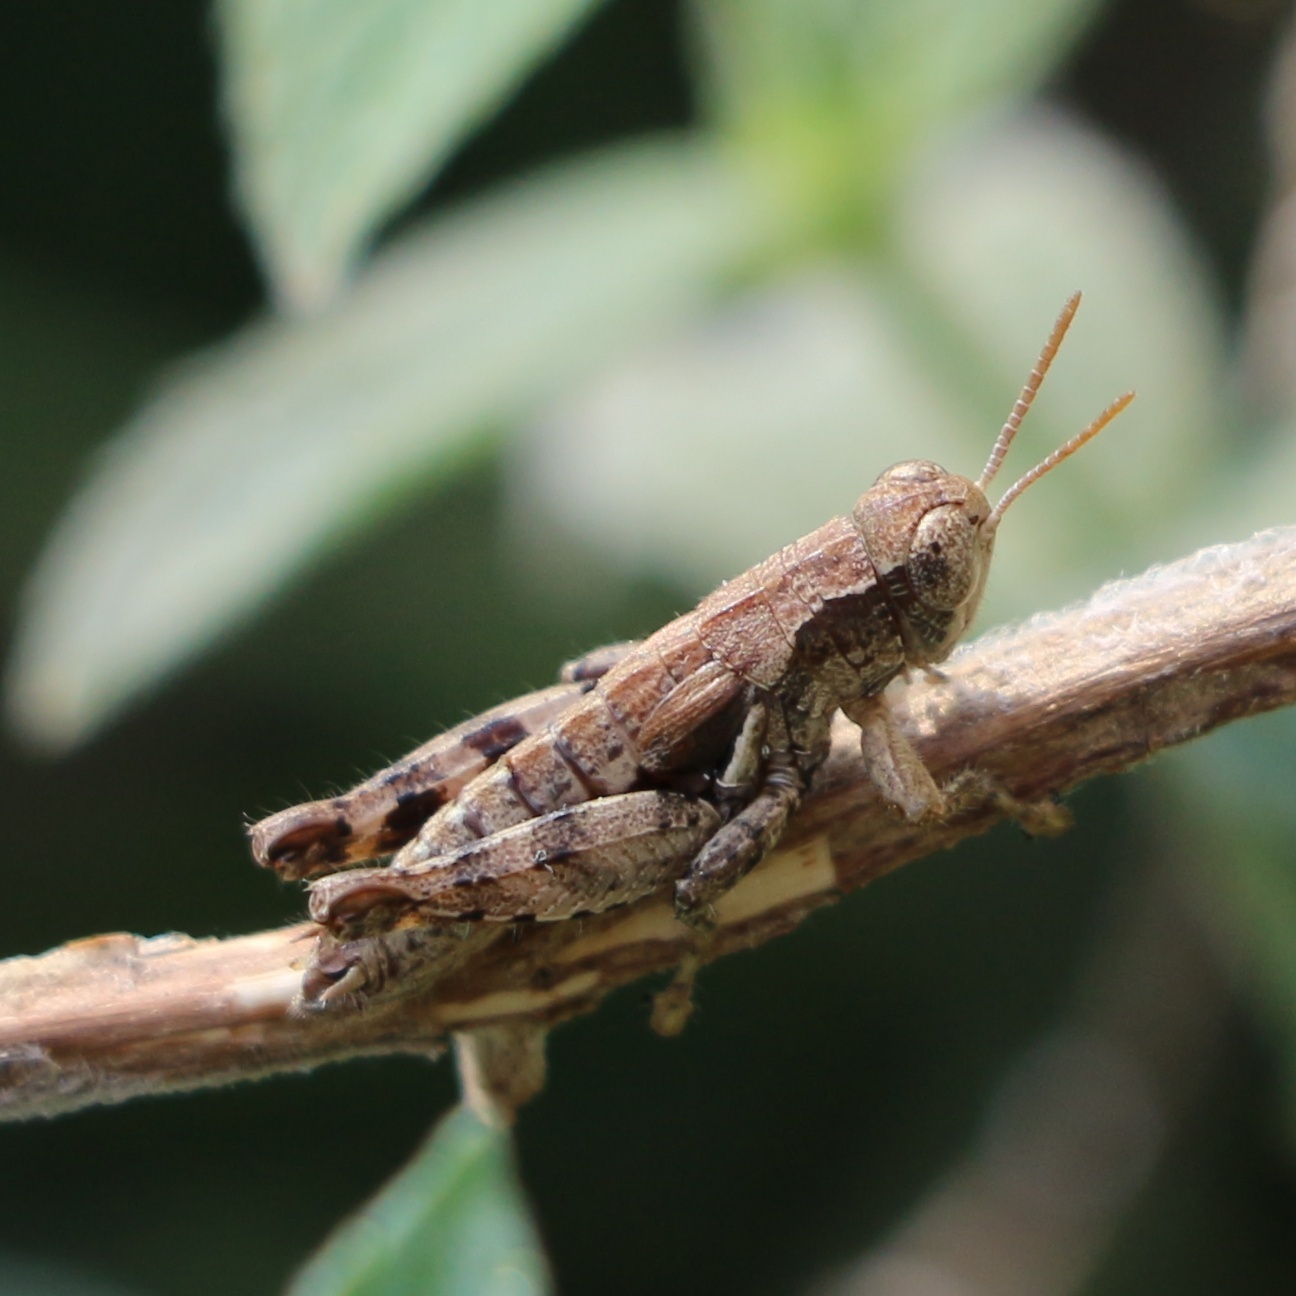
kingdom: Animalia
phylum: Arthropoda
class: Insecta
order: Orthoptera
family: Acrididae
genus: Pezotettix
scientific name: Pezotettix giornae
